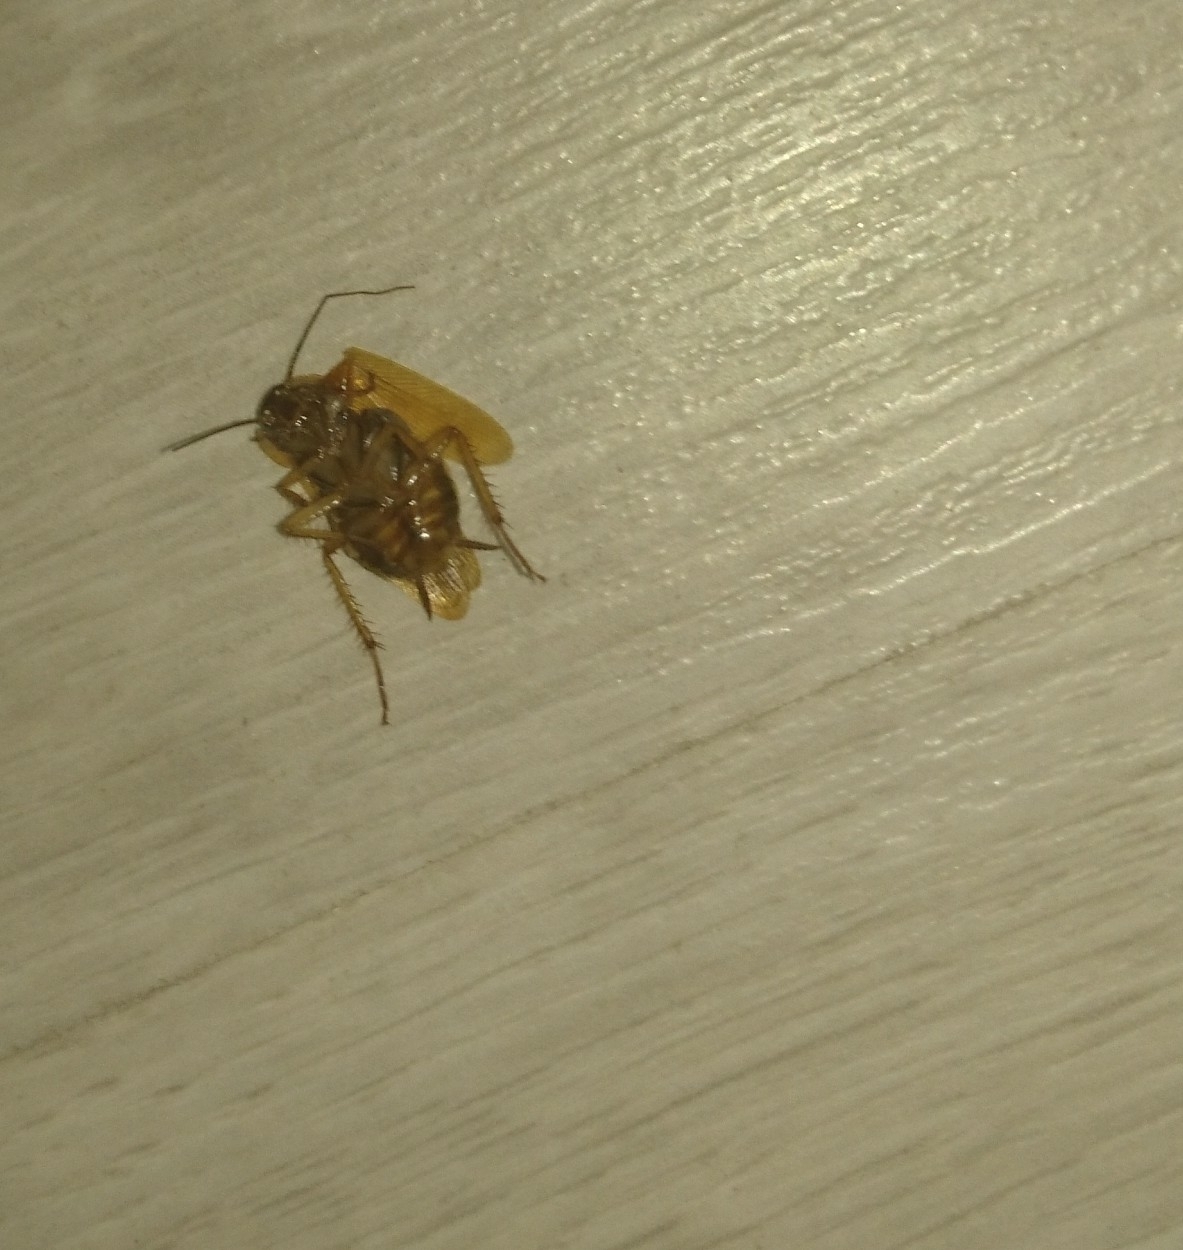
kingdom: Animalia
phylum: Arthropoda
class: Insecta
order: Blattodea
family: Ectobiidae
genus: Blattella
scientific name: Blattella germanica
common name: German cockroach
